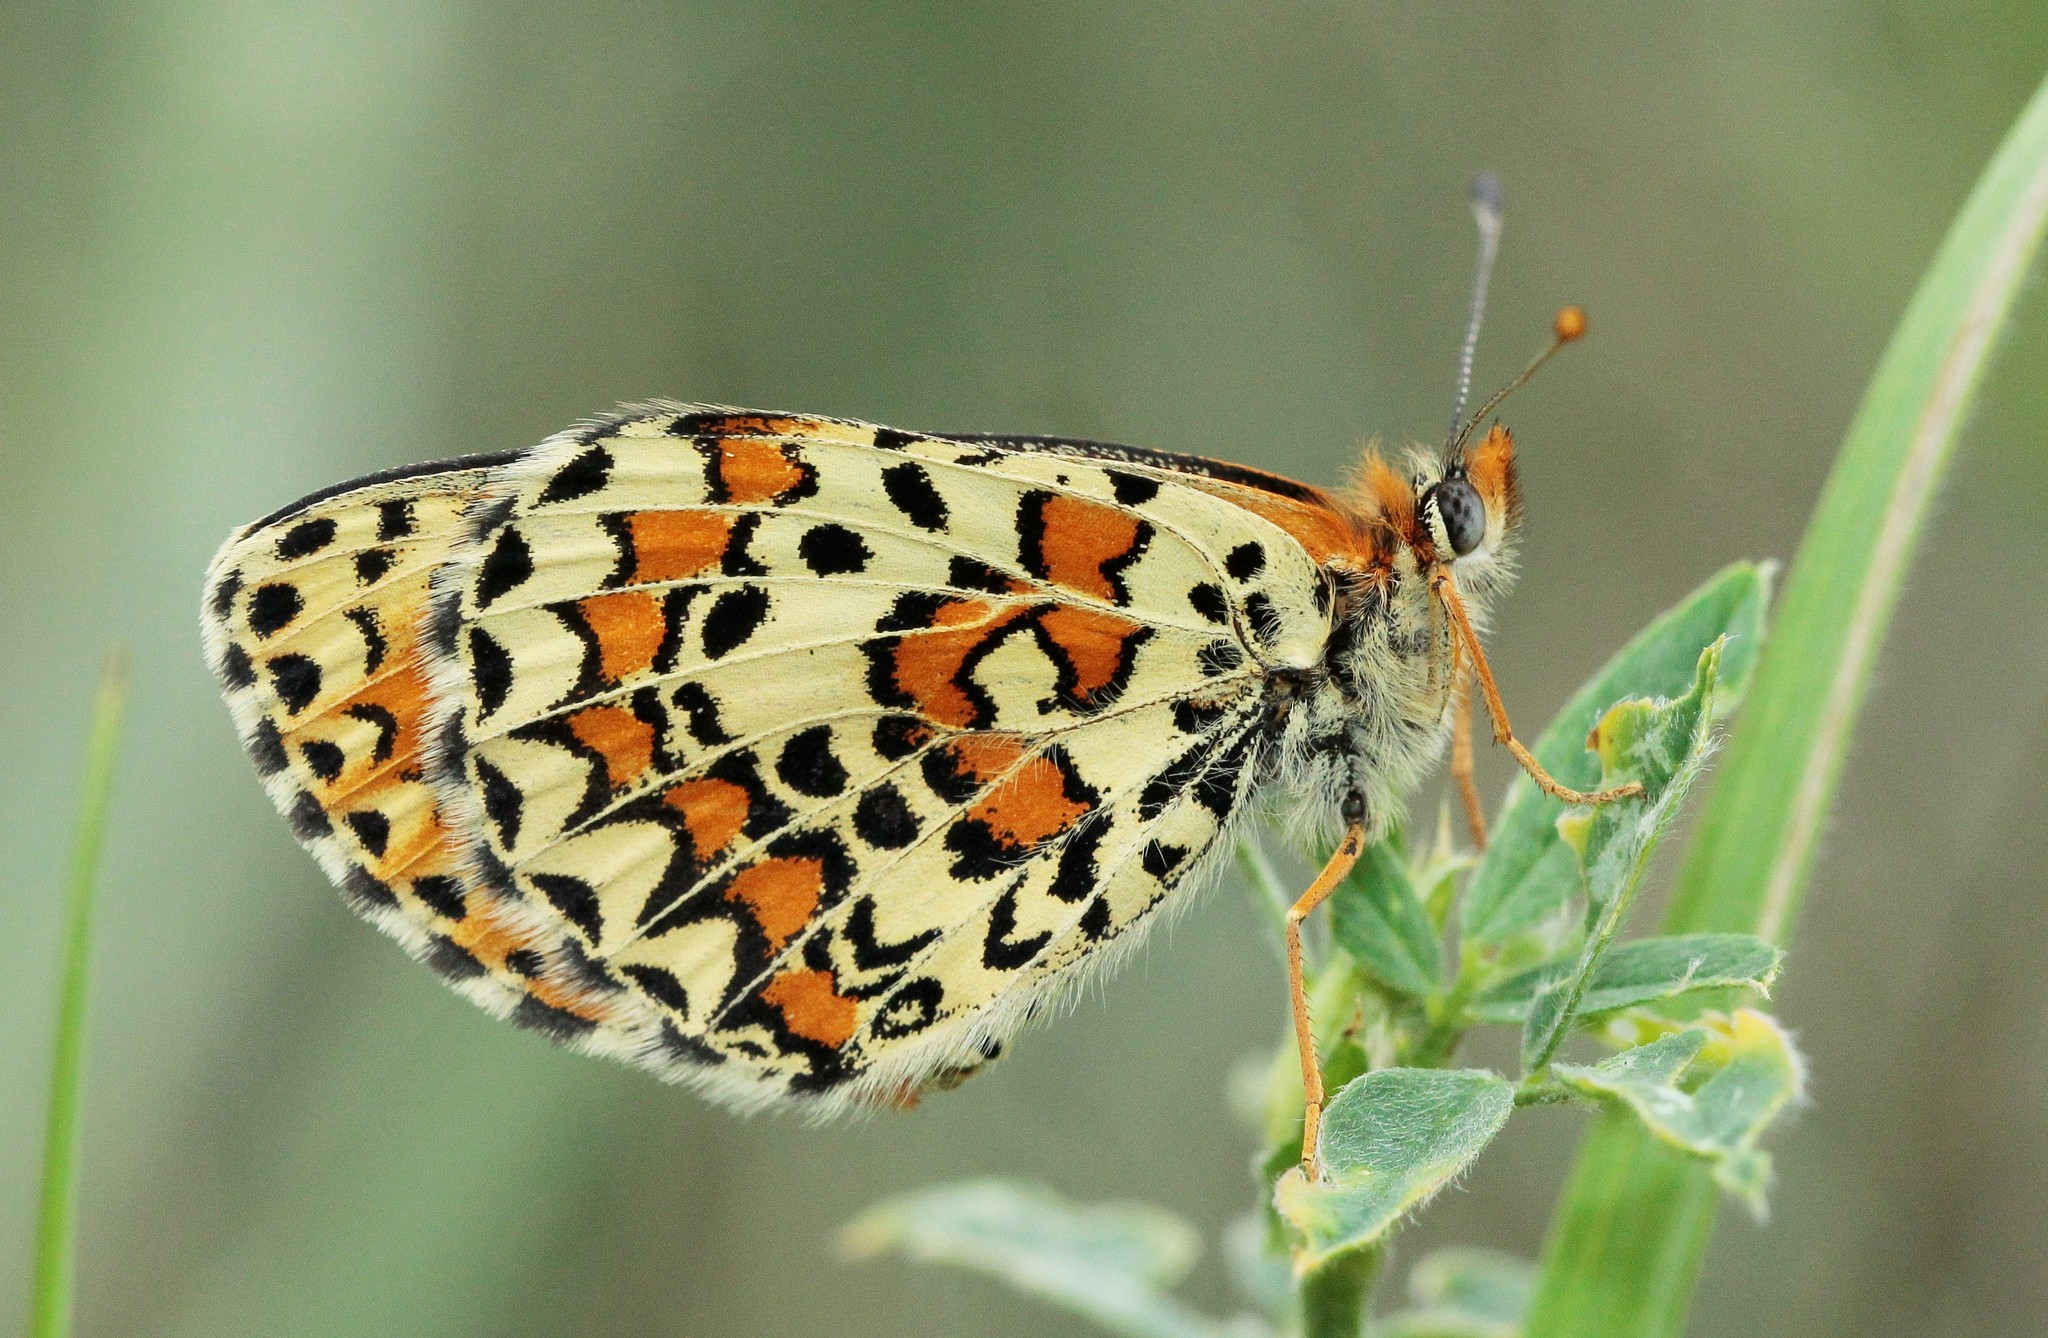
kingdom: Animalia
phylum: Arthropoda
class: Insecta
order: Lepidoptera
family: Nymphalidae
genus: Melitaea
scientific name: Melitaea trivia
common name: Lesser spotted fritillary
